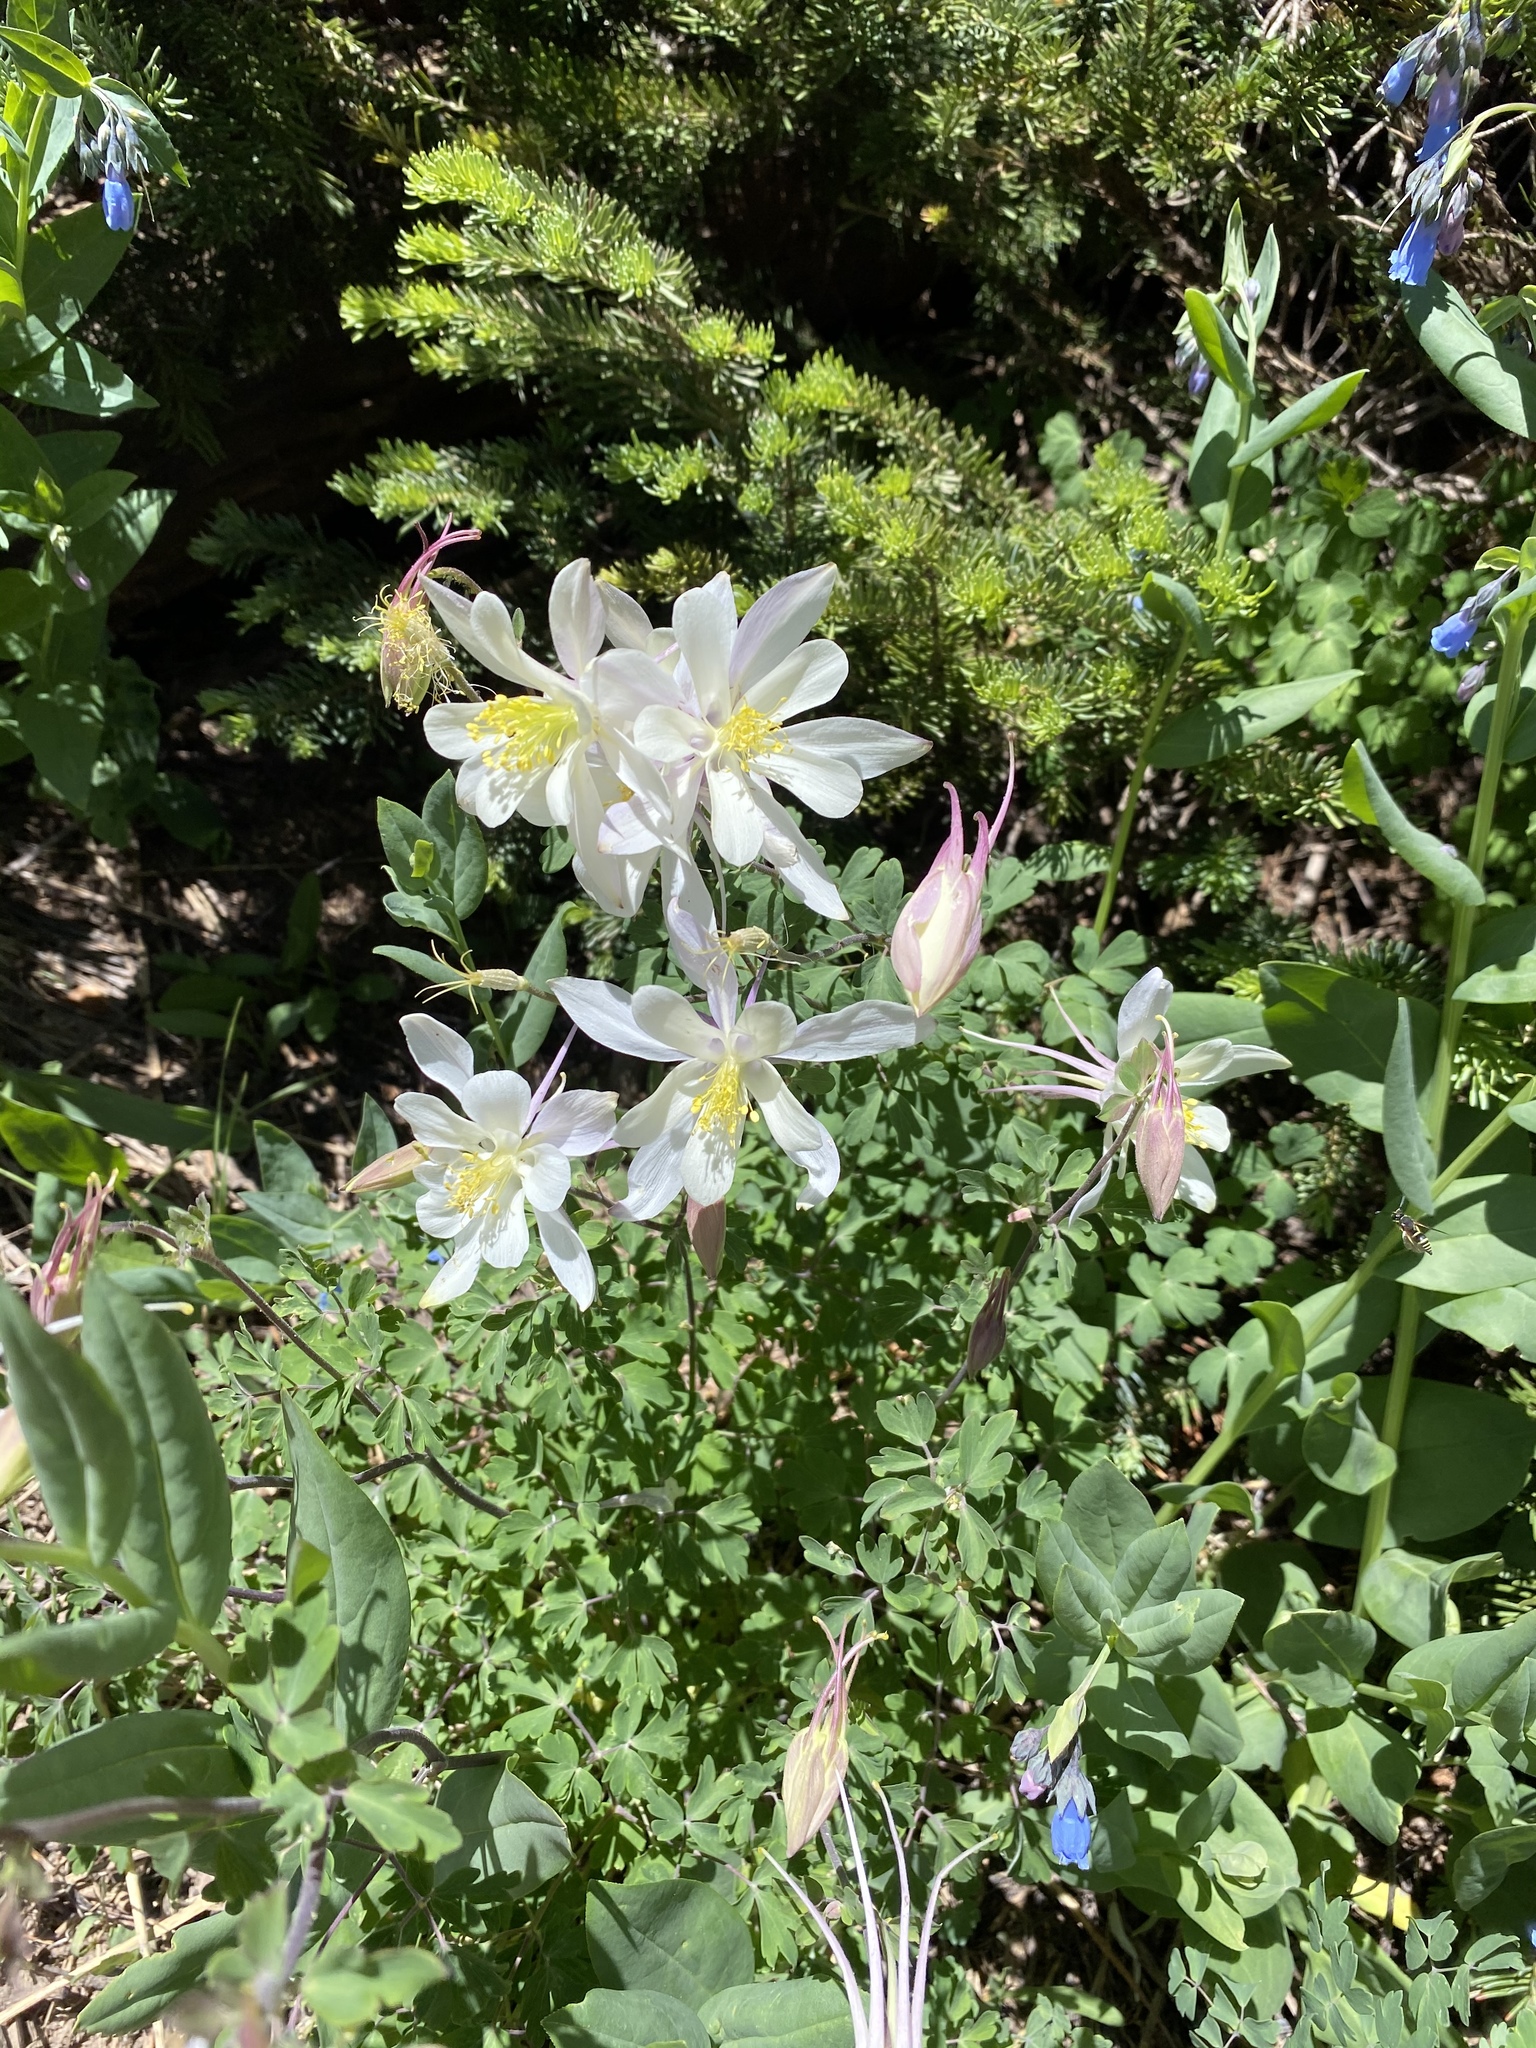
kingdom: Plantae
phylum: Tracheophyta
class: Magnoliopsida
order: Ranunculales
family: Ranunculaceae
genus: Aquilegia
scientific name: Aquilegia coerulea
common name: Rocky mountain columbine
